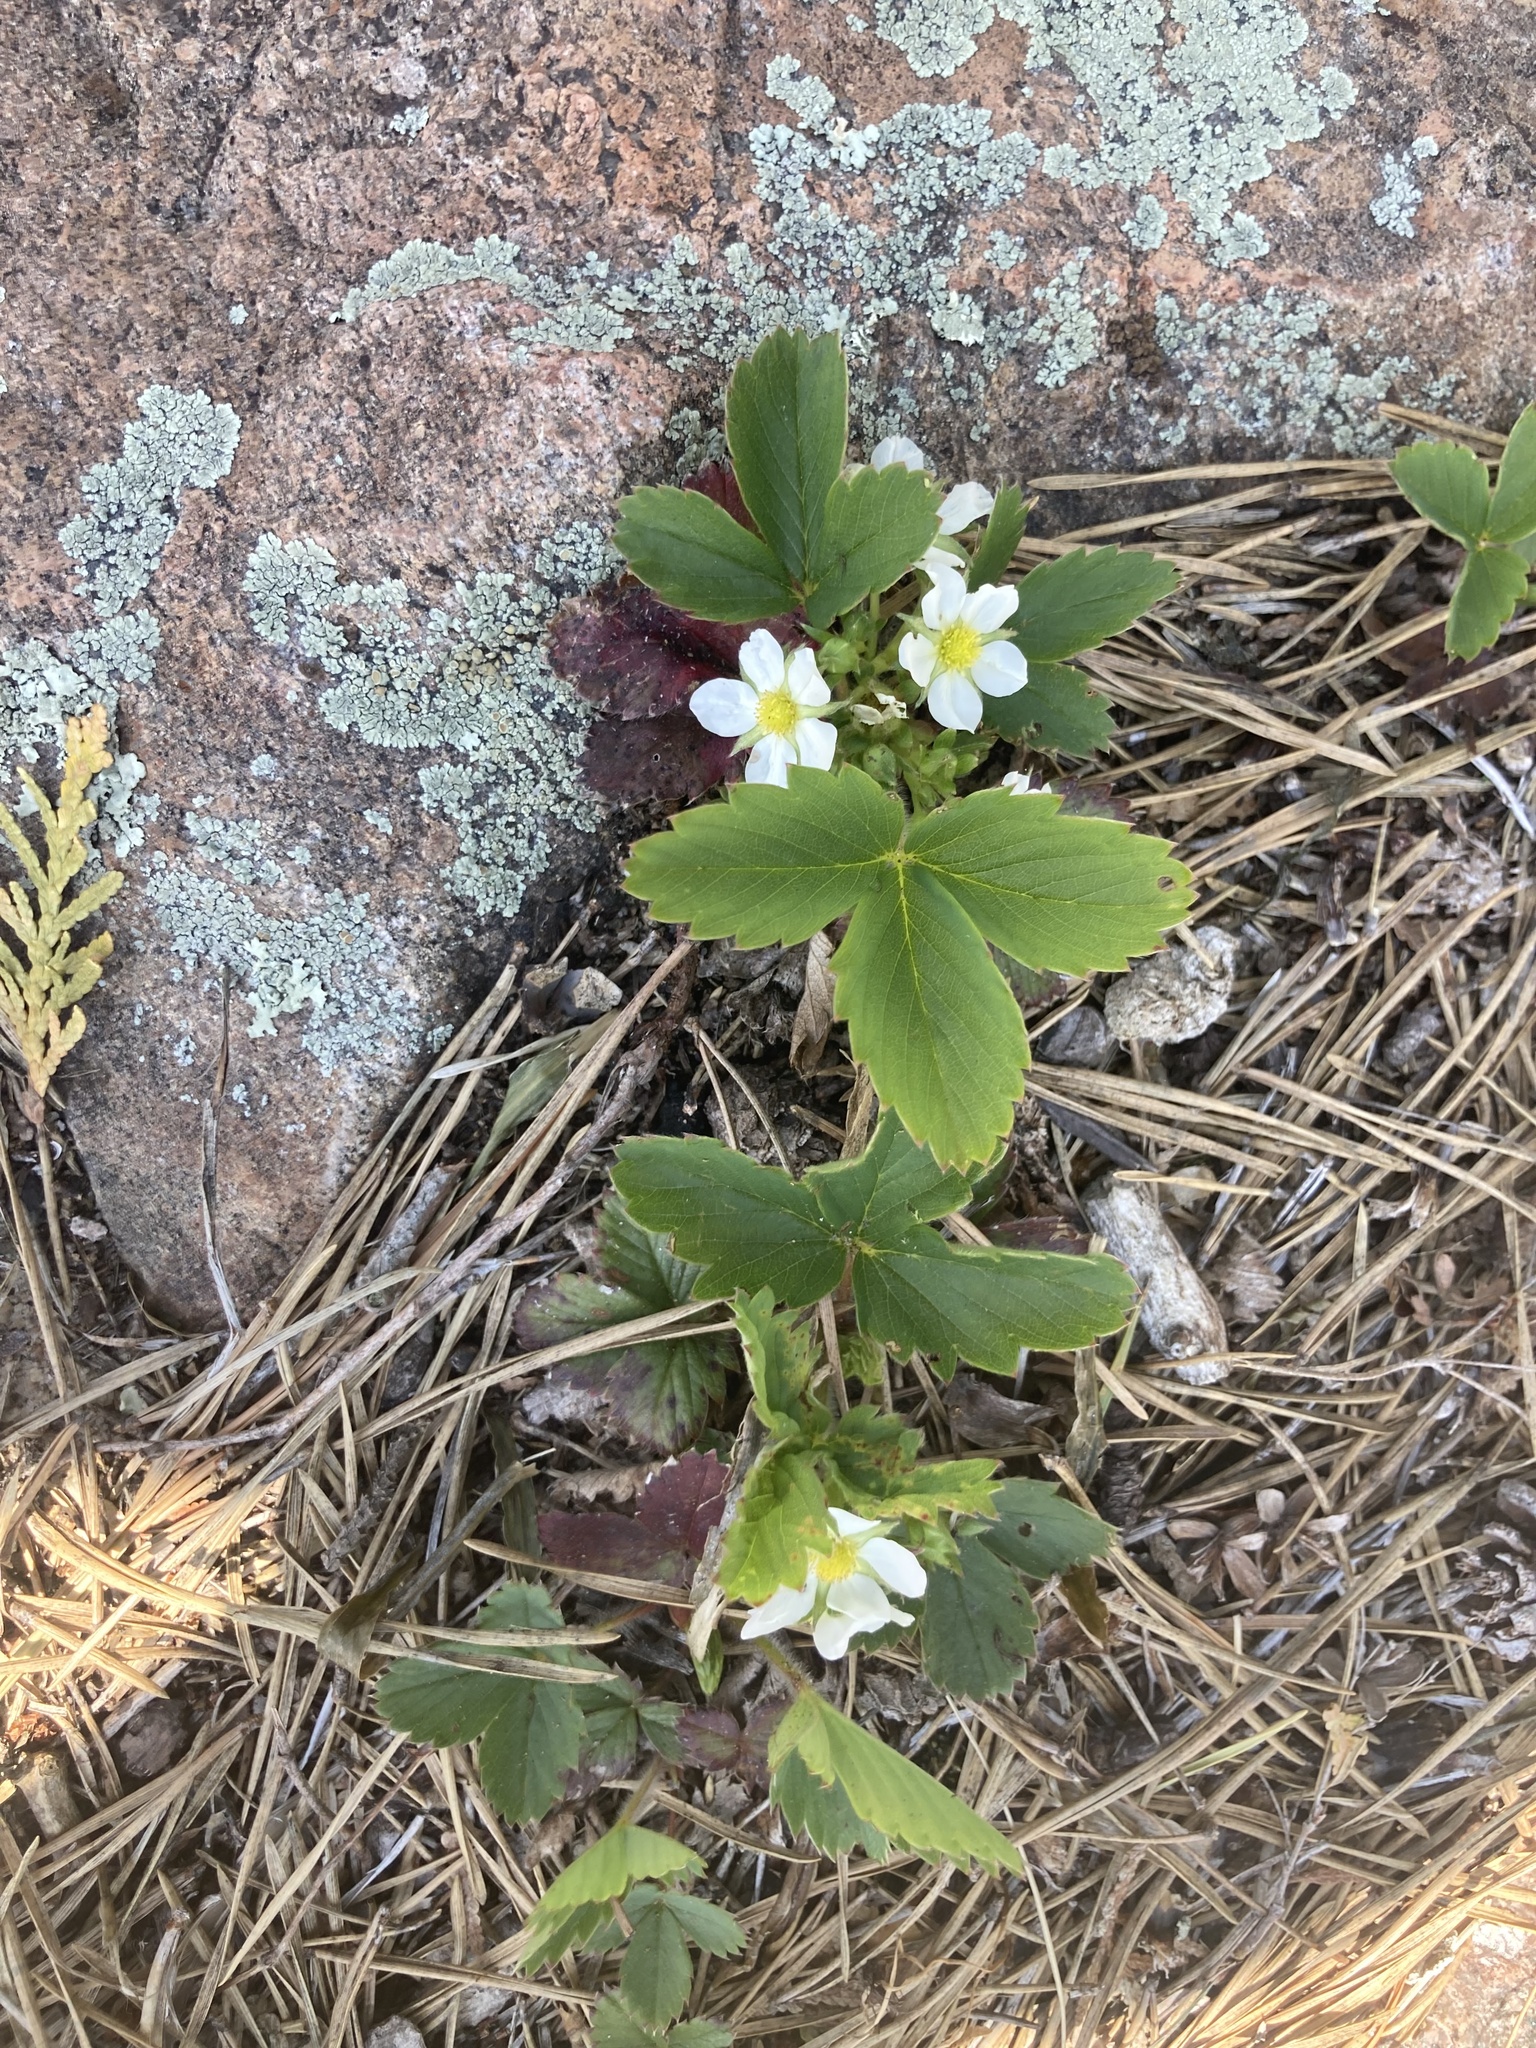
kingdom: Plantae
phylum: Tracheophyta
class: Magnoliopsida
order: Rosales
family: Rosaceae
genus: Fragaria
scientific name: Fragaria virginiana
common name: Thickleaved wild strawberry
